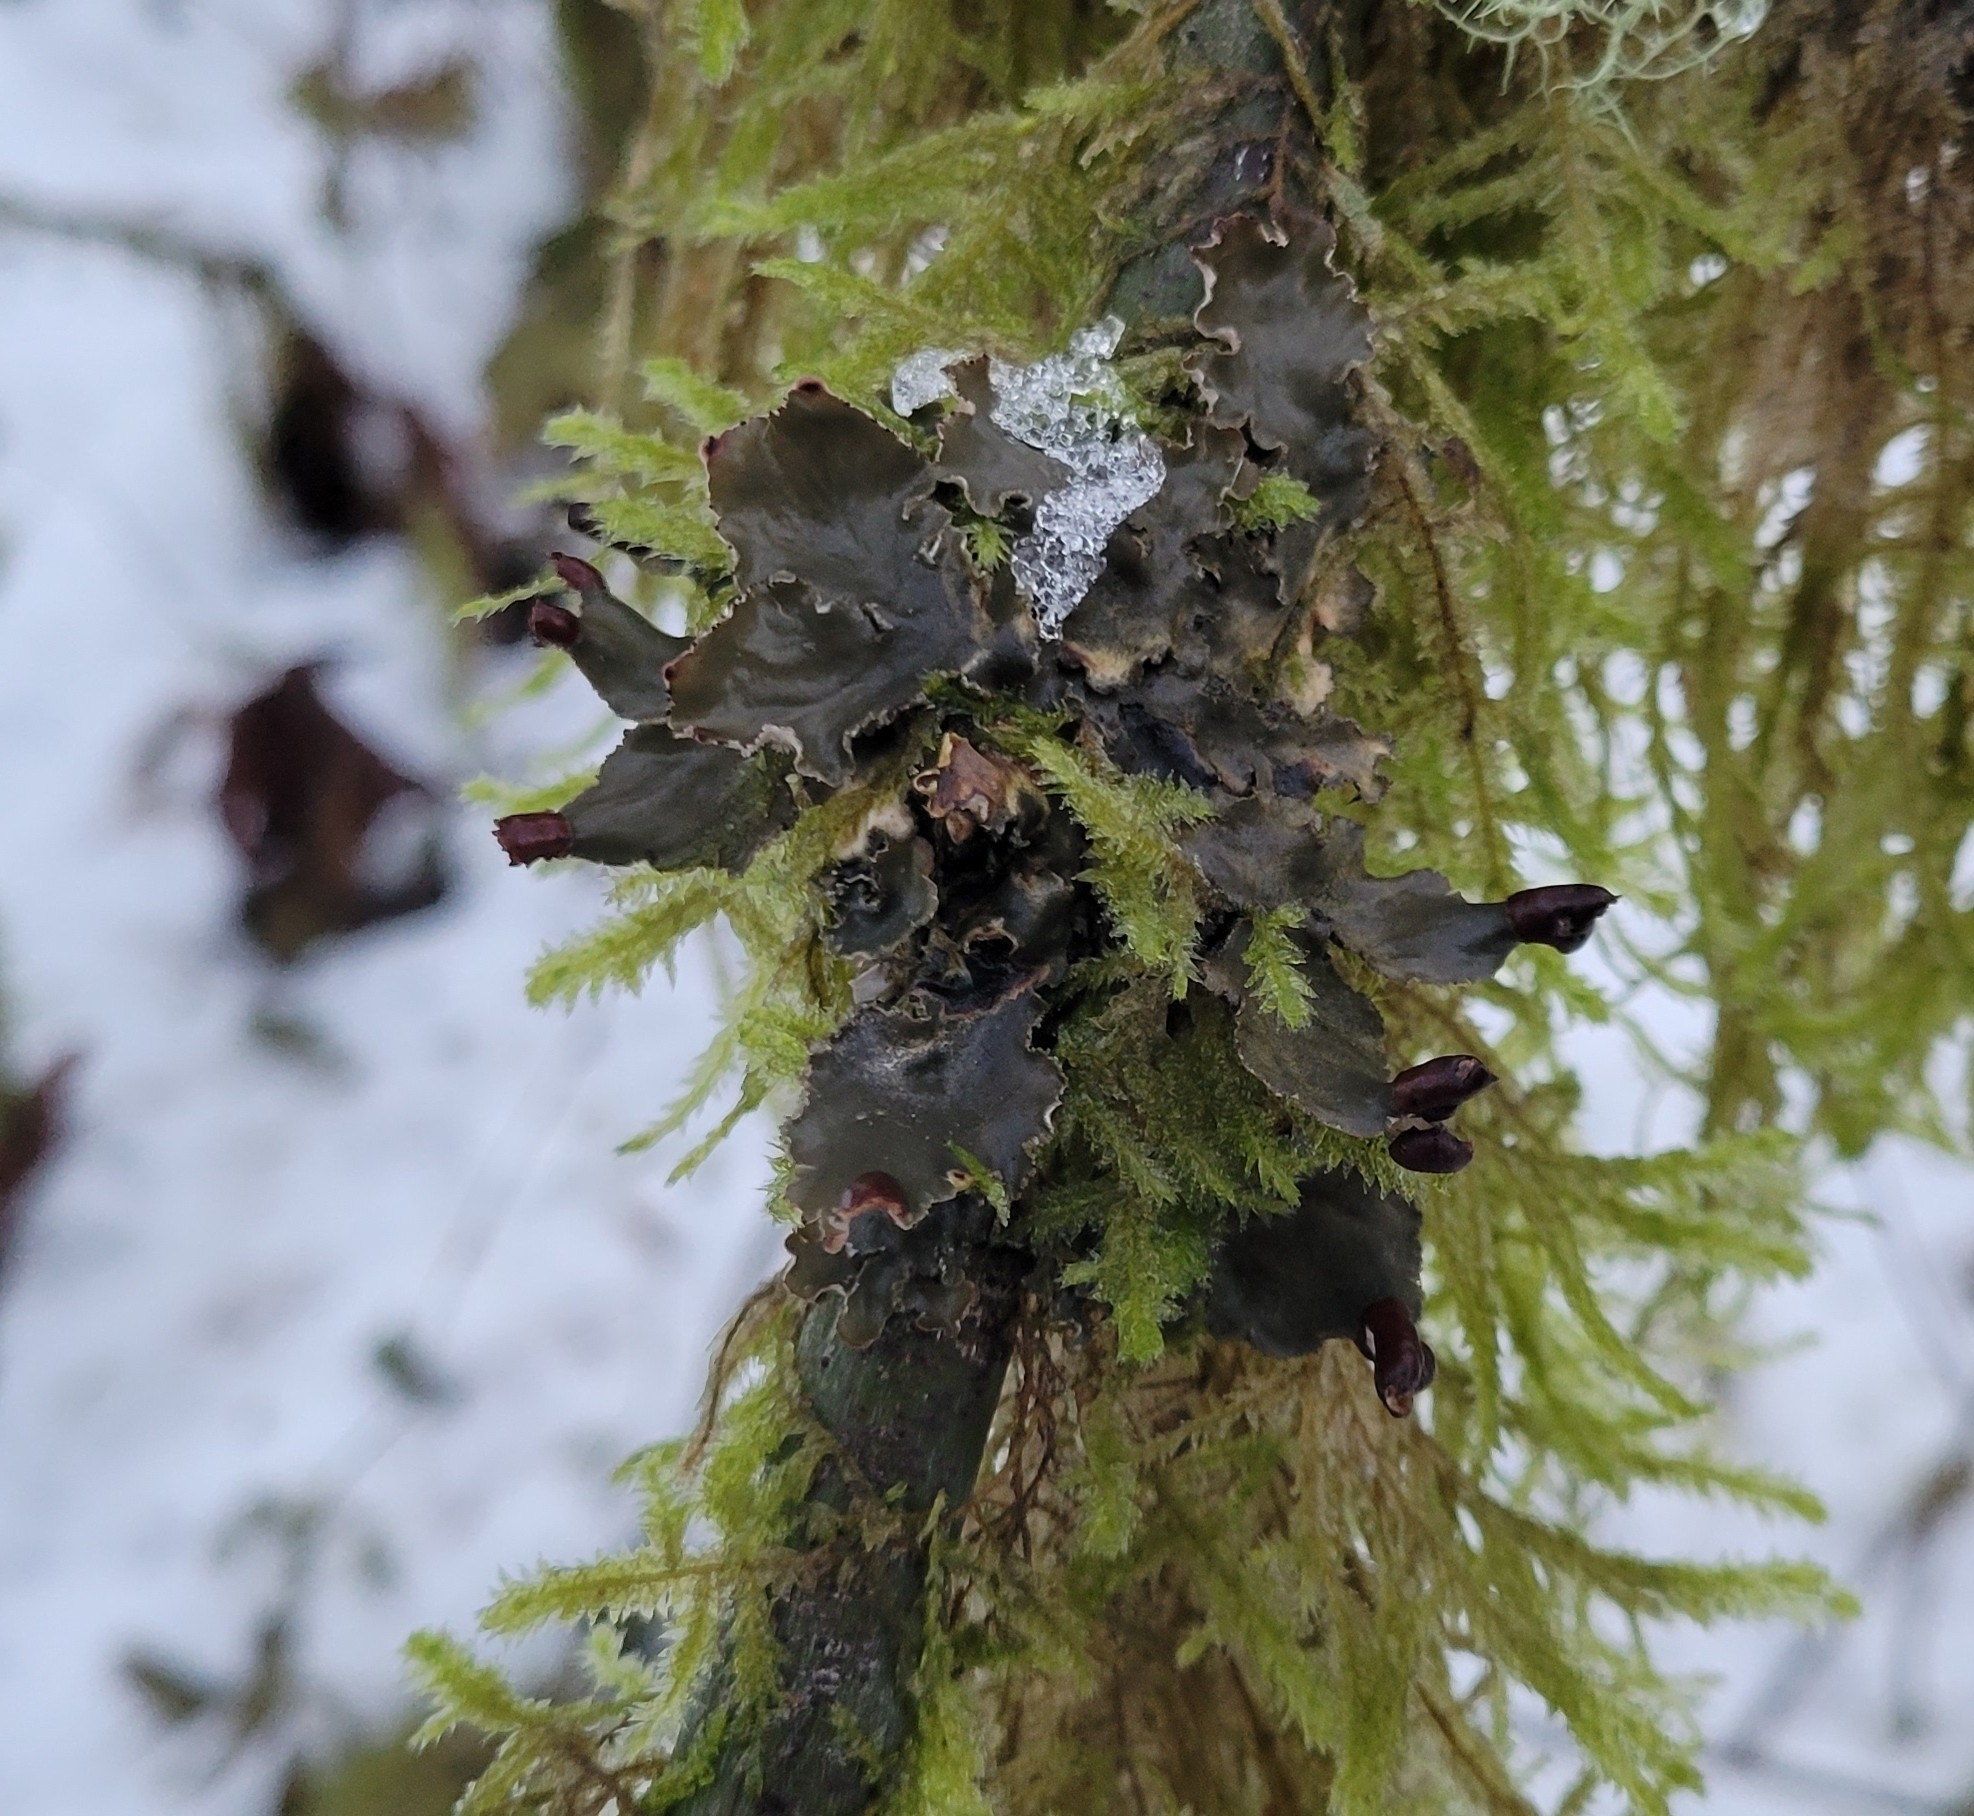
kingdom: Fungi
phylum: Ascomycota
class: Lecanoromycetes
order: Peltigerales
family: Peltigeraceae
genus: Peltigera
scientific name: Peltigera collina
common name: Gritty tree pelt lichen
